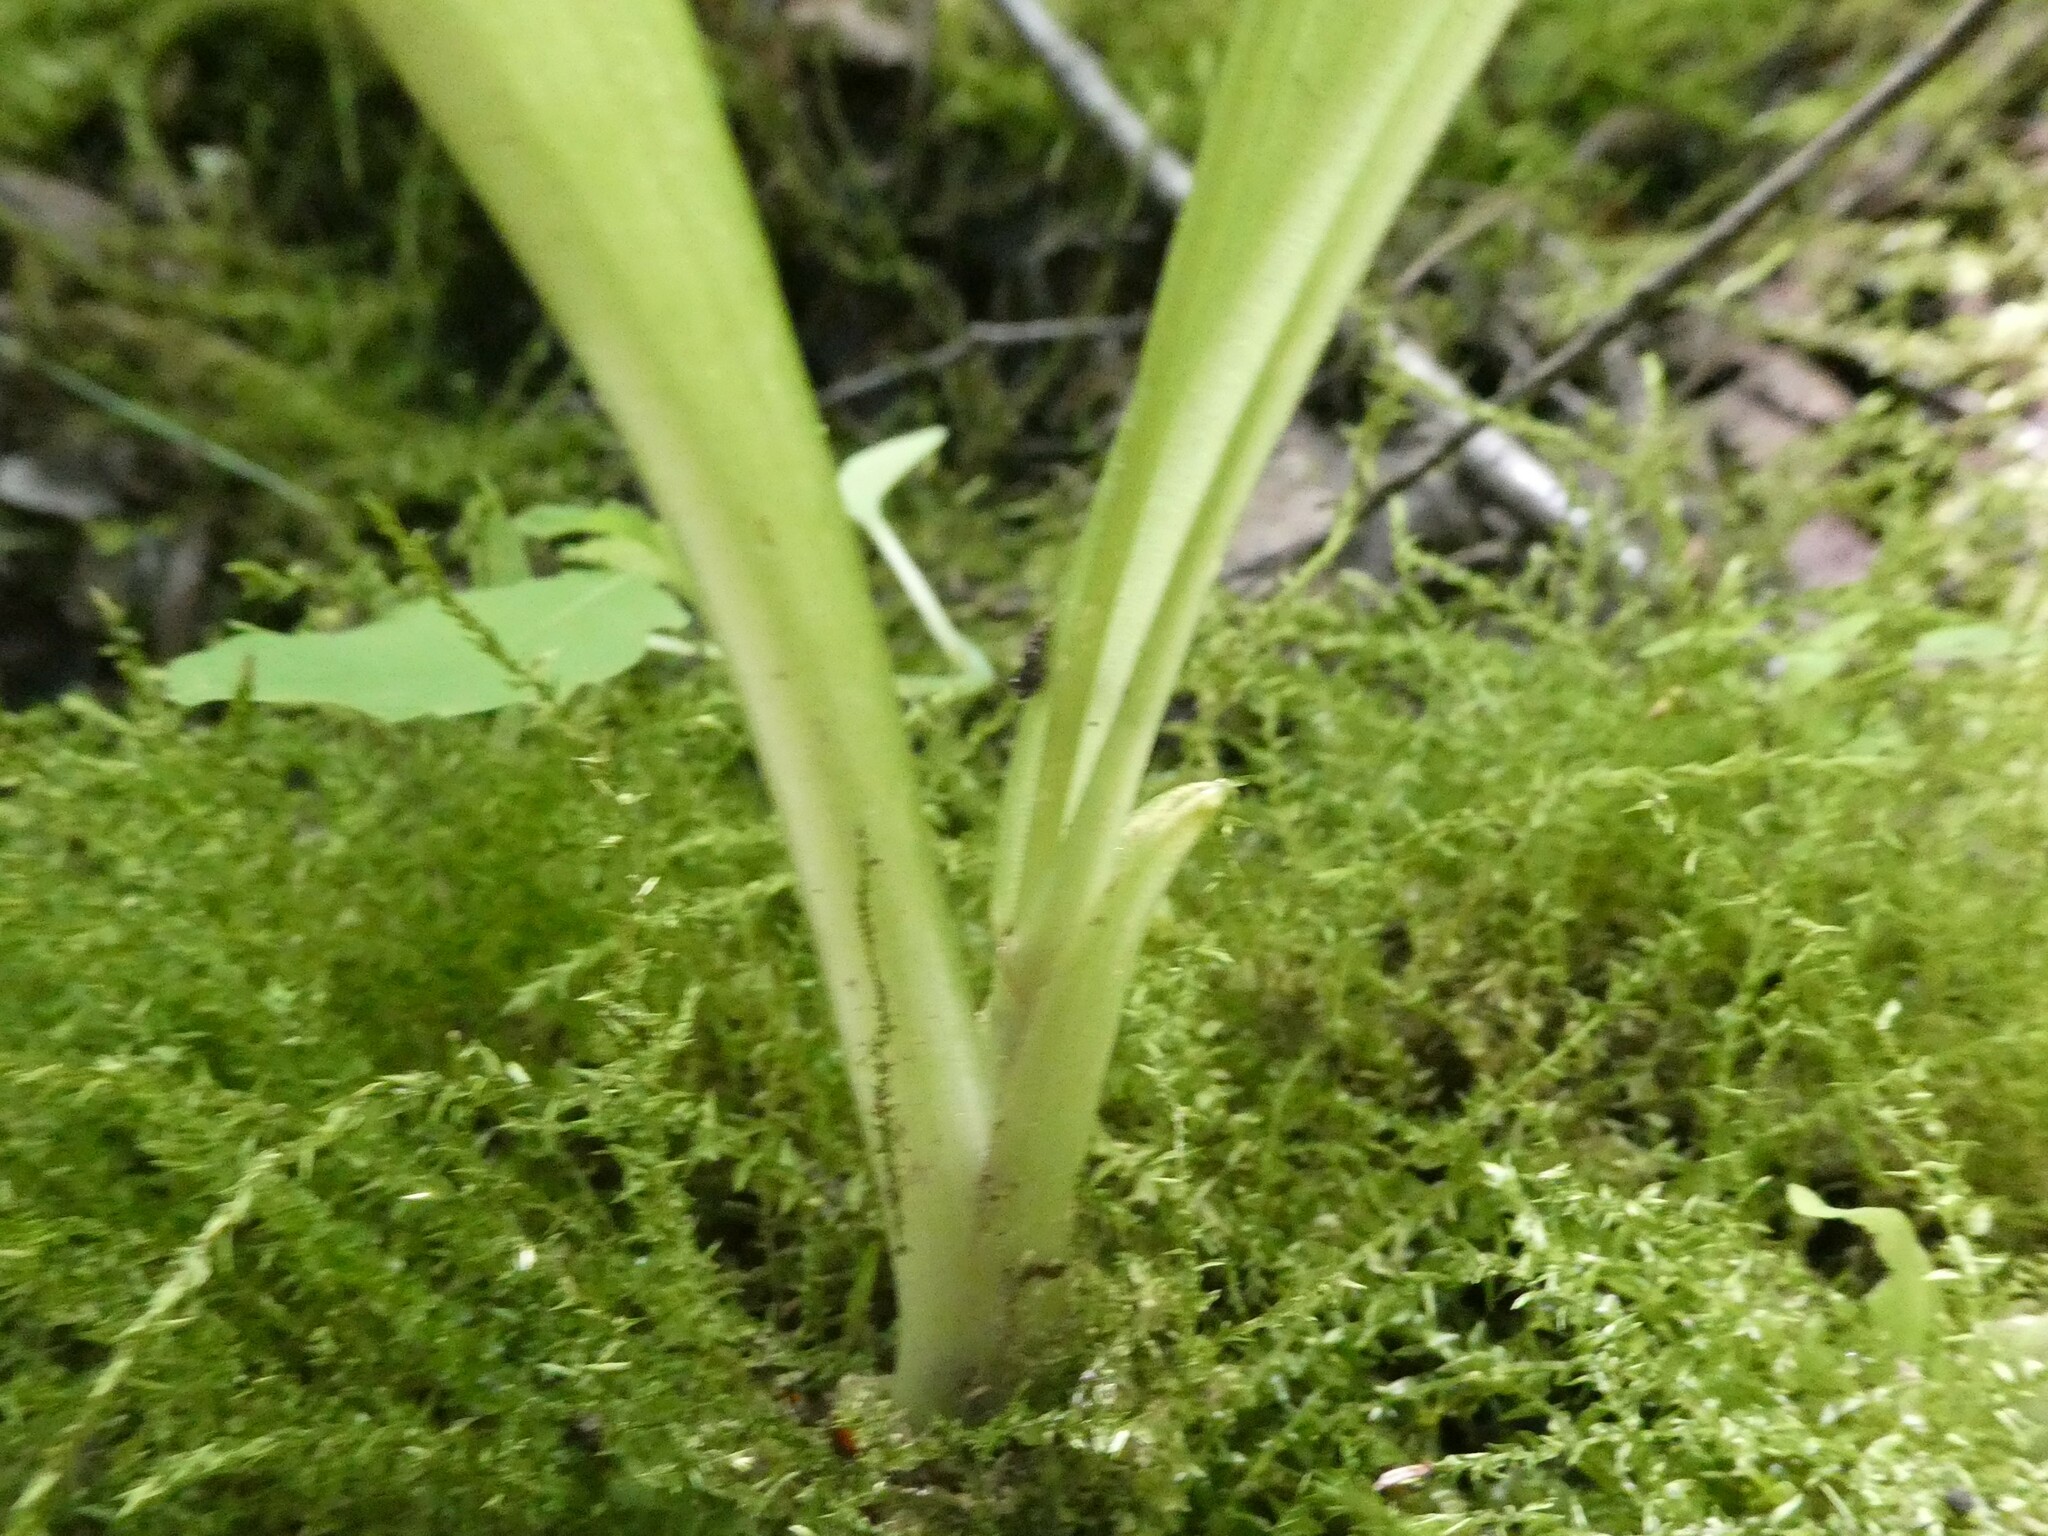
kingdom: Animalia
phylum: Arthropoda
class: Insecta
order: Coleoptera
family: Curculionidae
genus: Liparis
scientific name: Liparis loeselii
